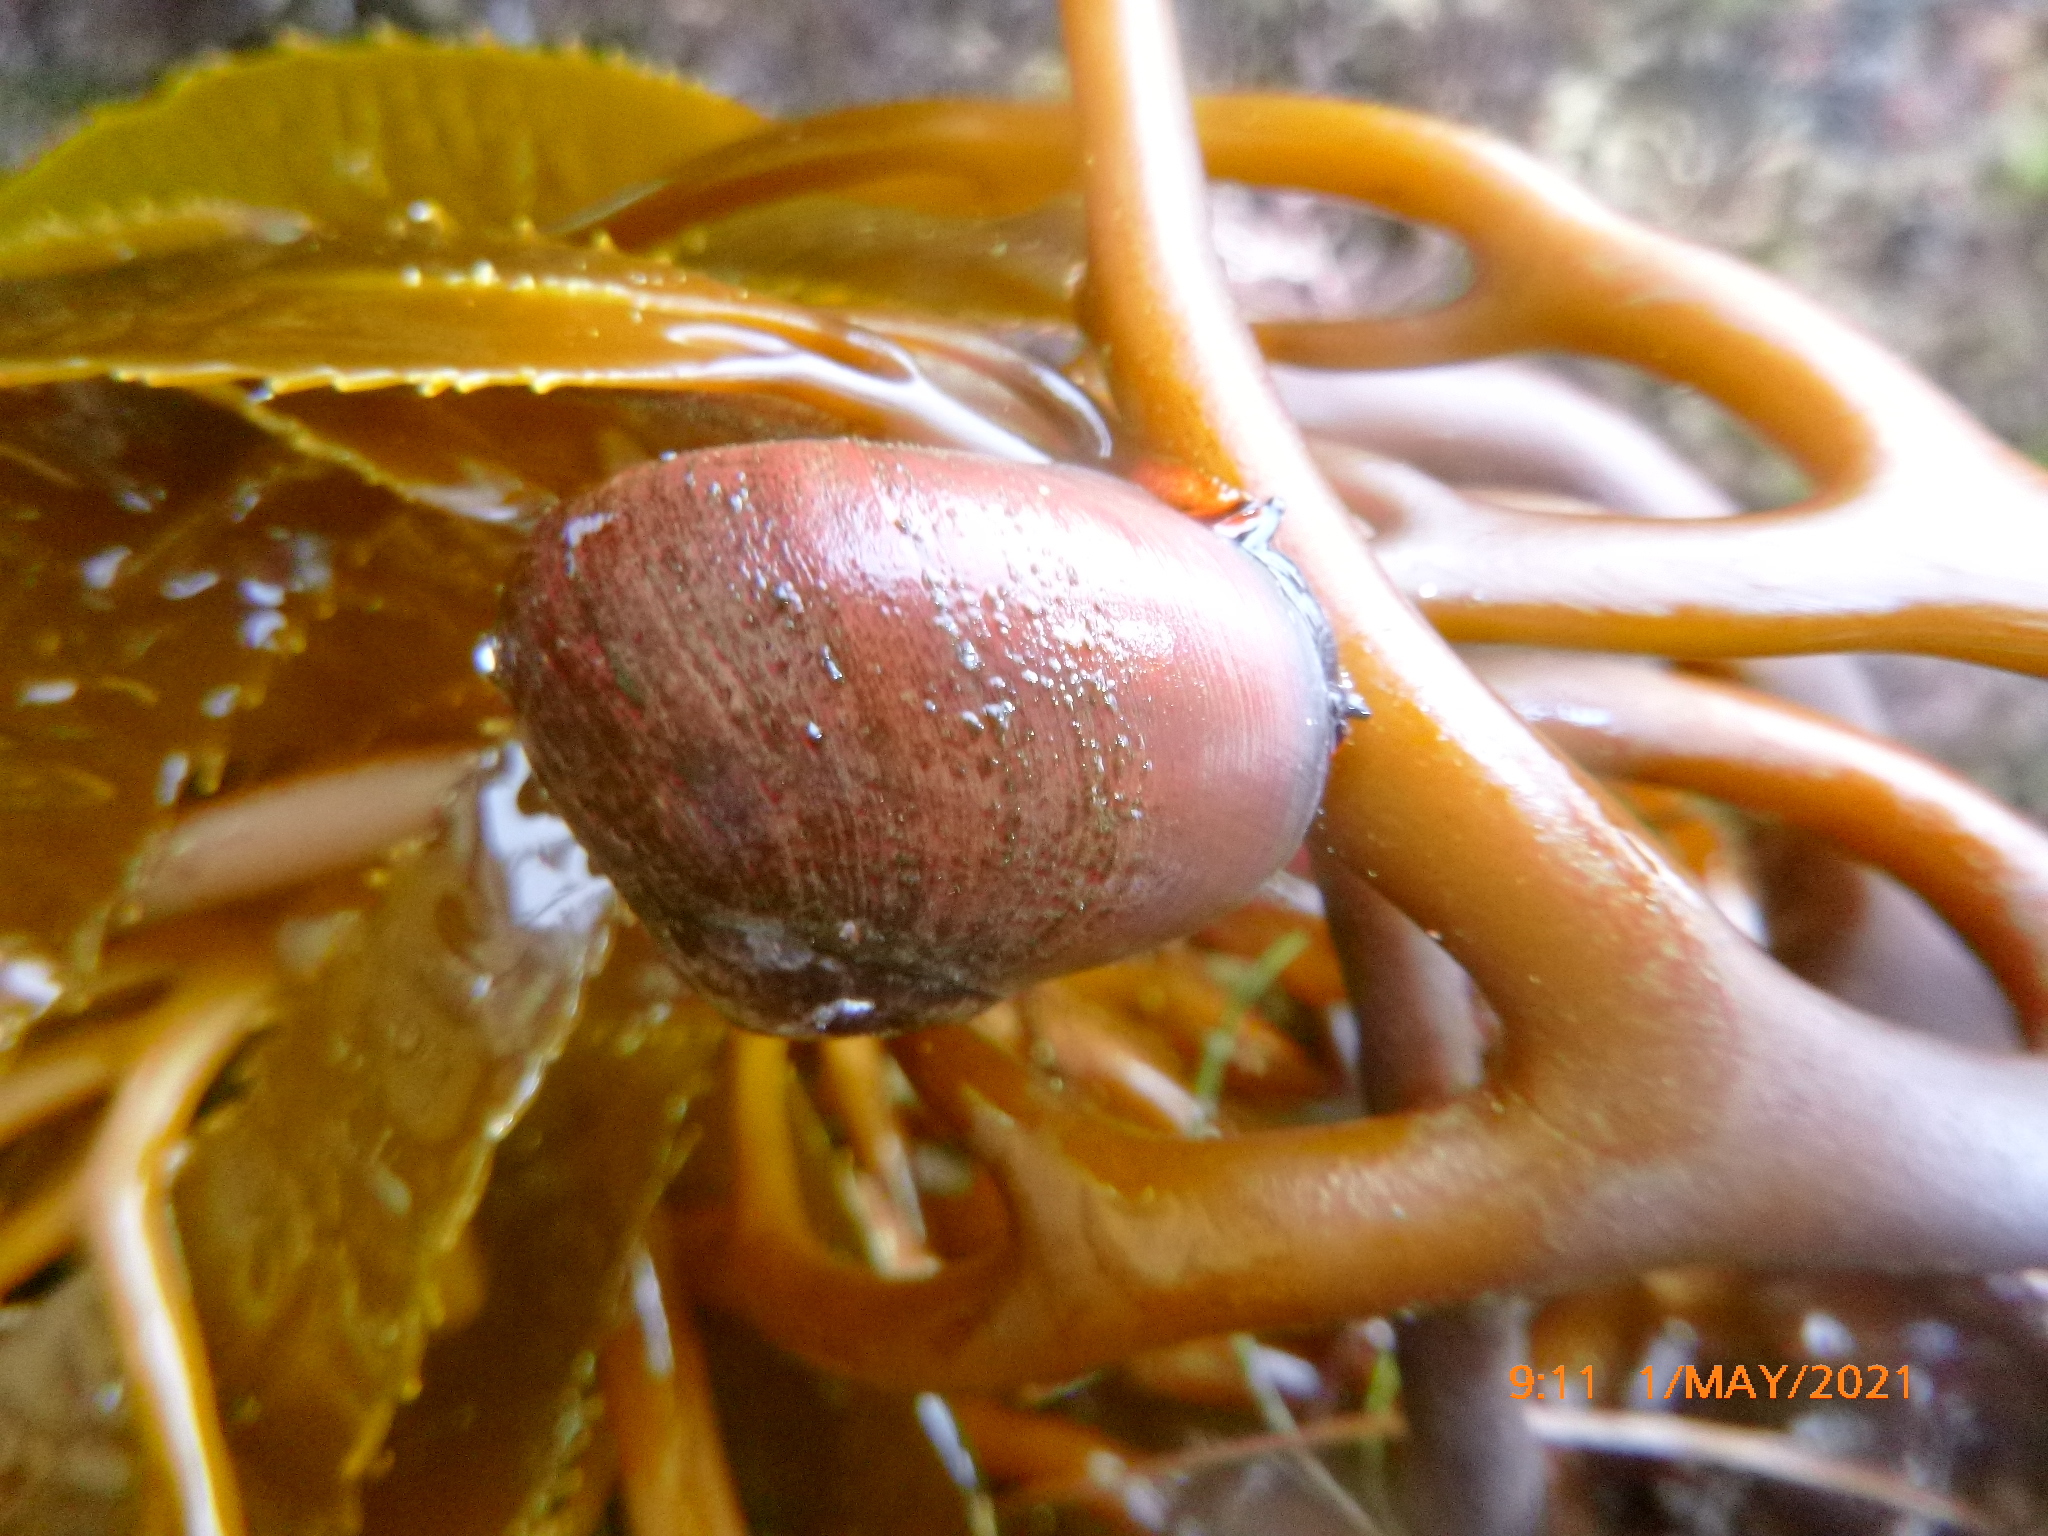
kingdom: Animalia
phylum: Mollusca
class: Gastropoda
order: Trochida
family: Tegulidae
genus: Norrisia
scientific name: Norrisia norrisii
